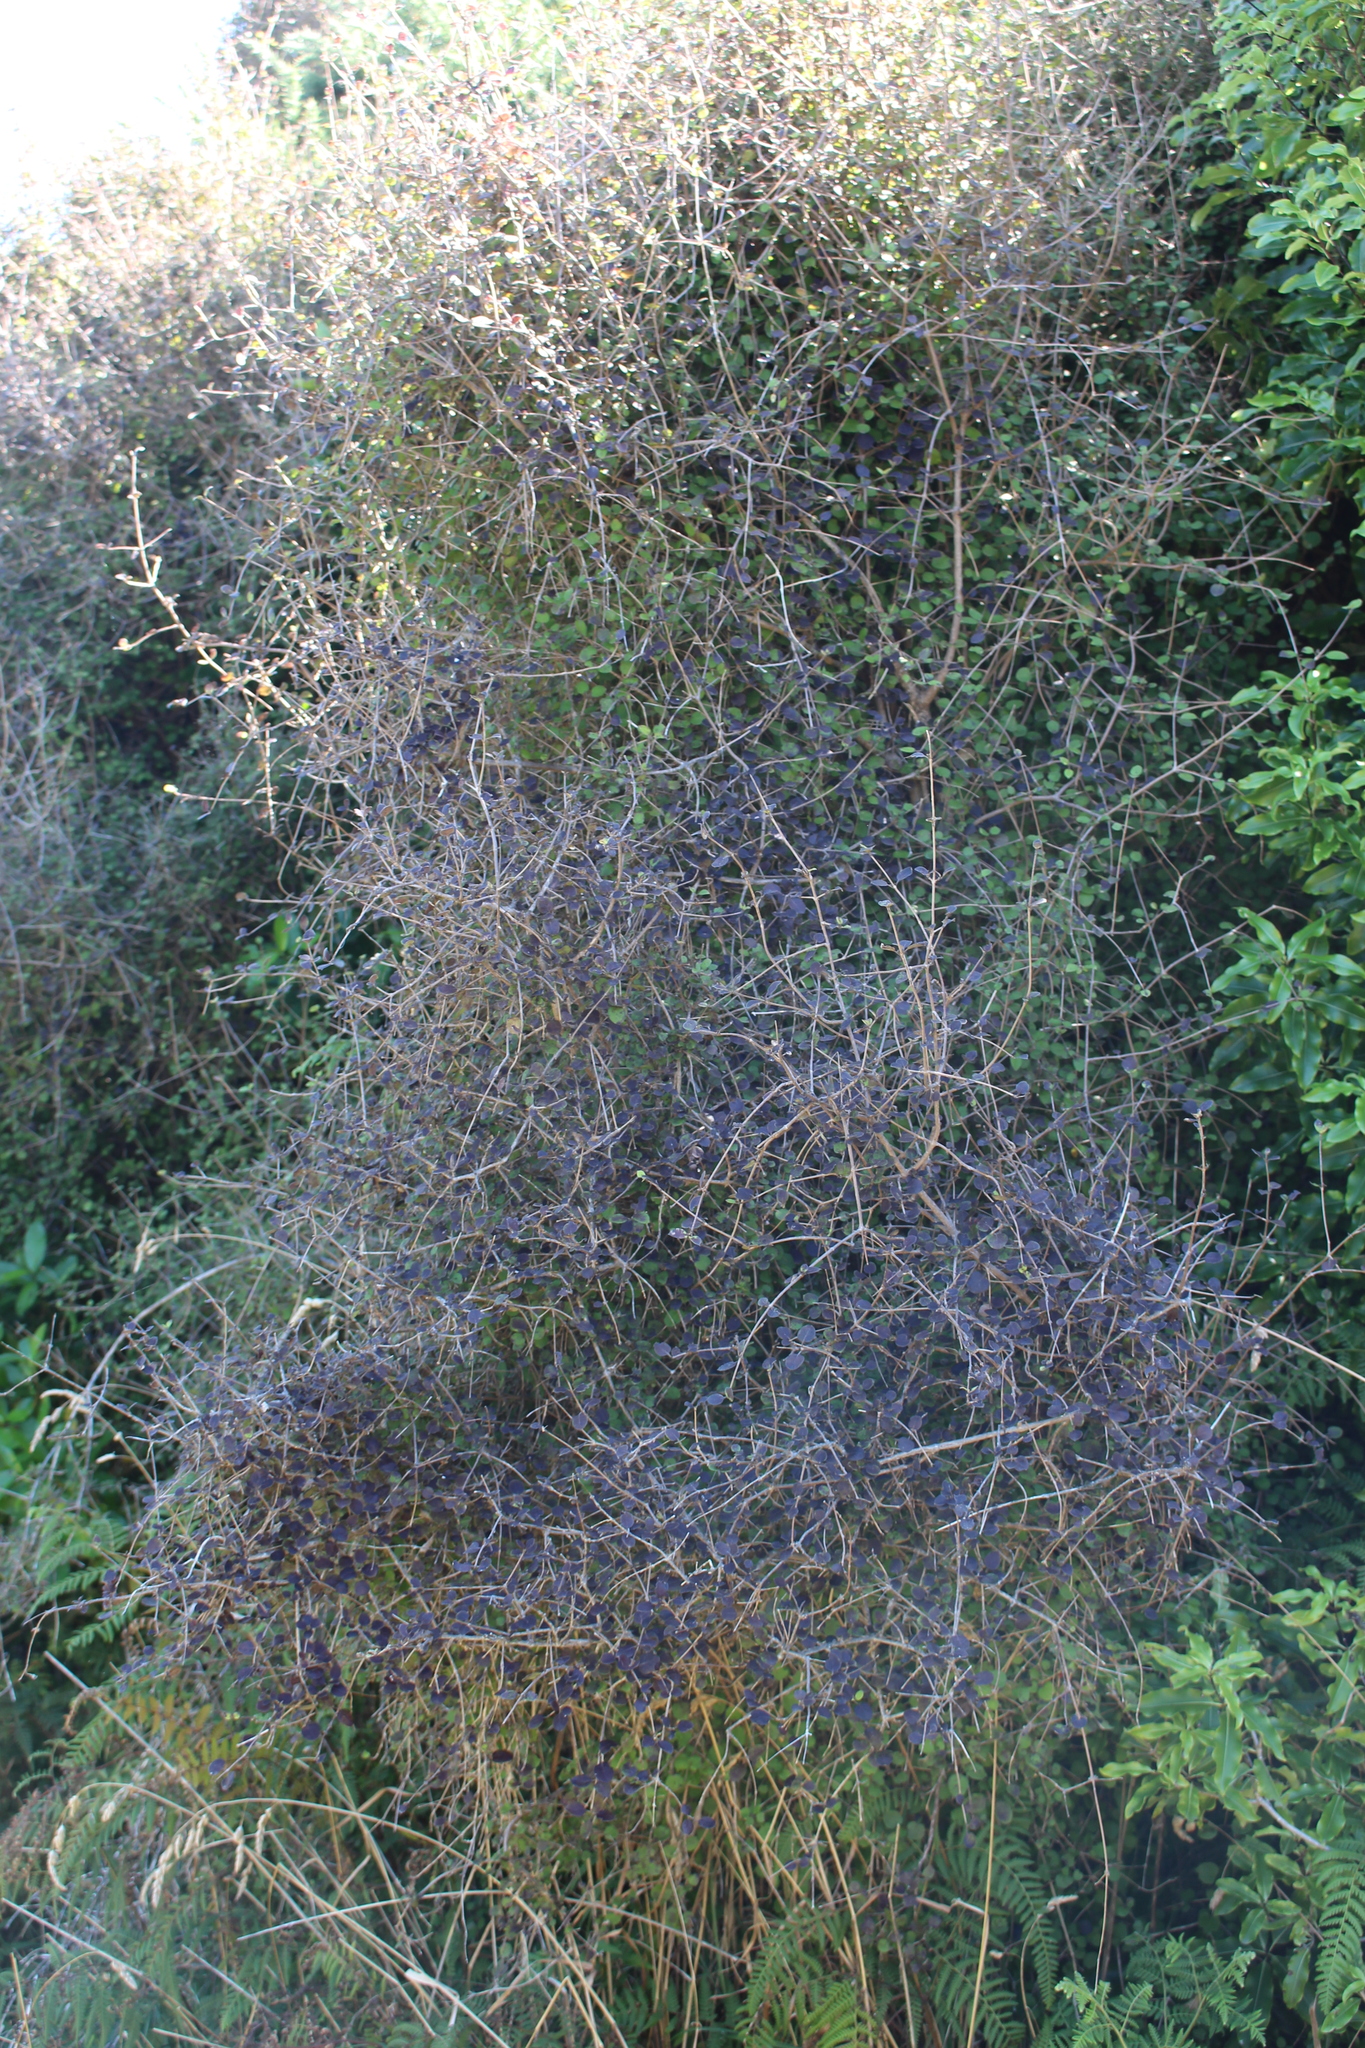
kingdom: Plantae
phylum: Tracheophyta
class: Magnoliopsida
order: Gentianales
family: Rubiaceae
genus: Coprosma
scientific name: Coprosma rotundifolia
